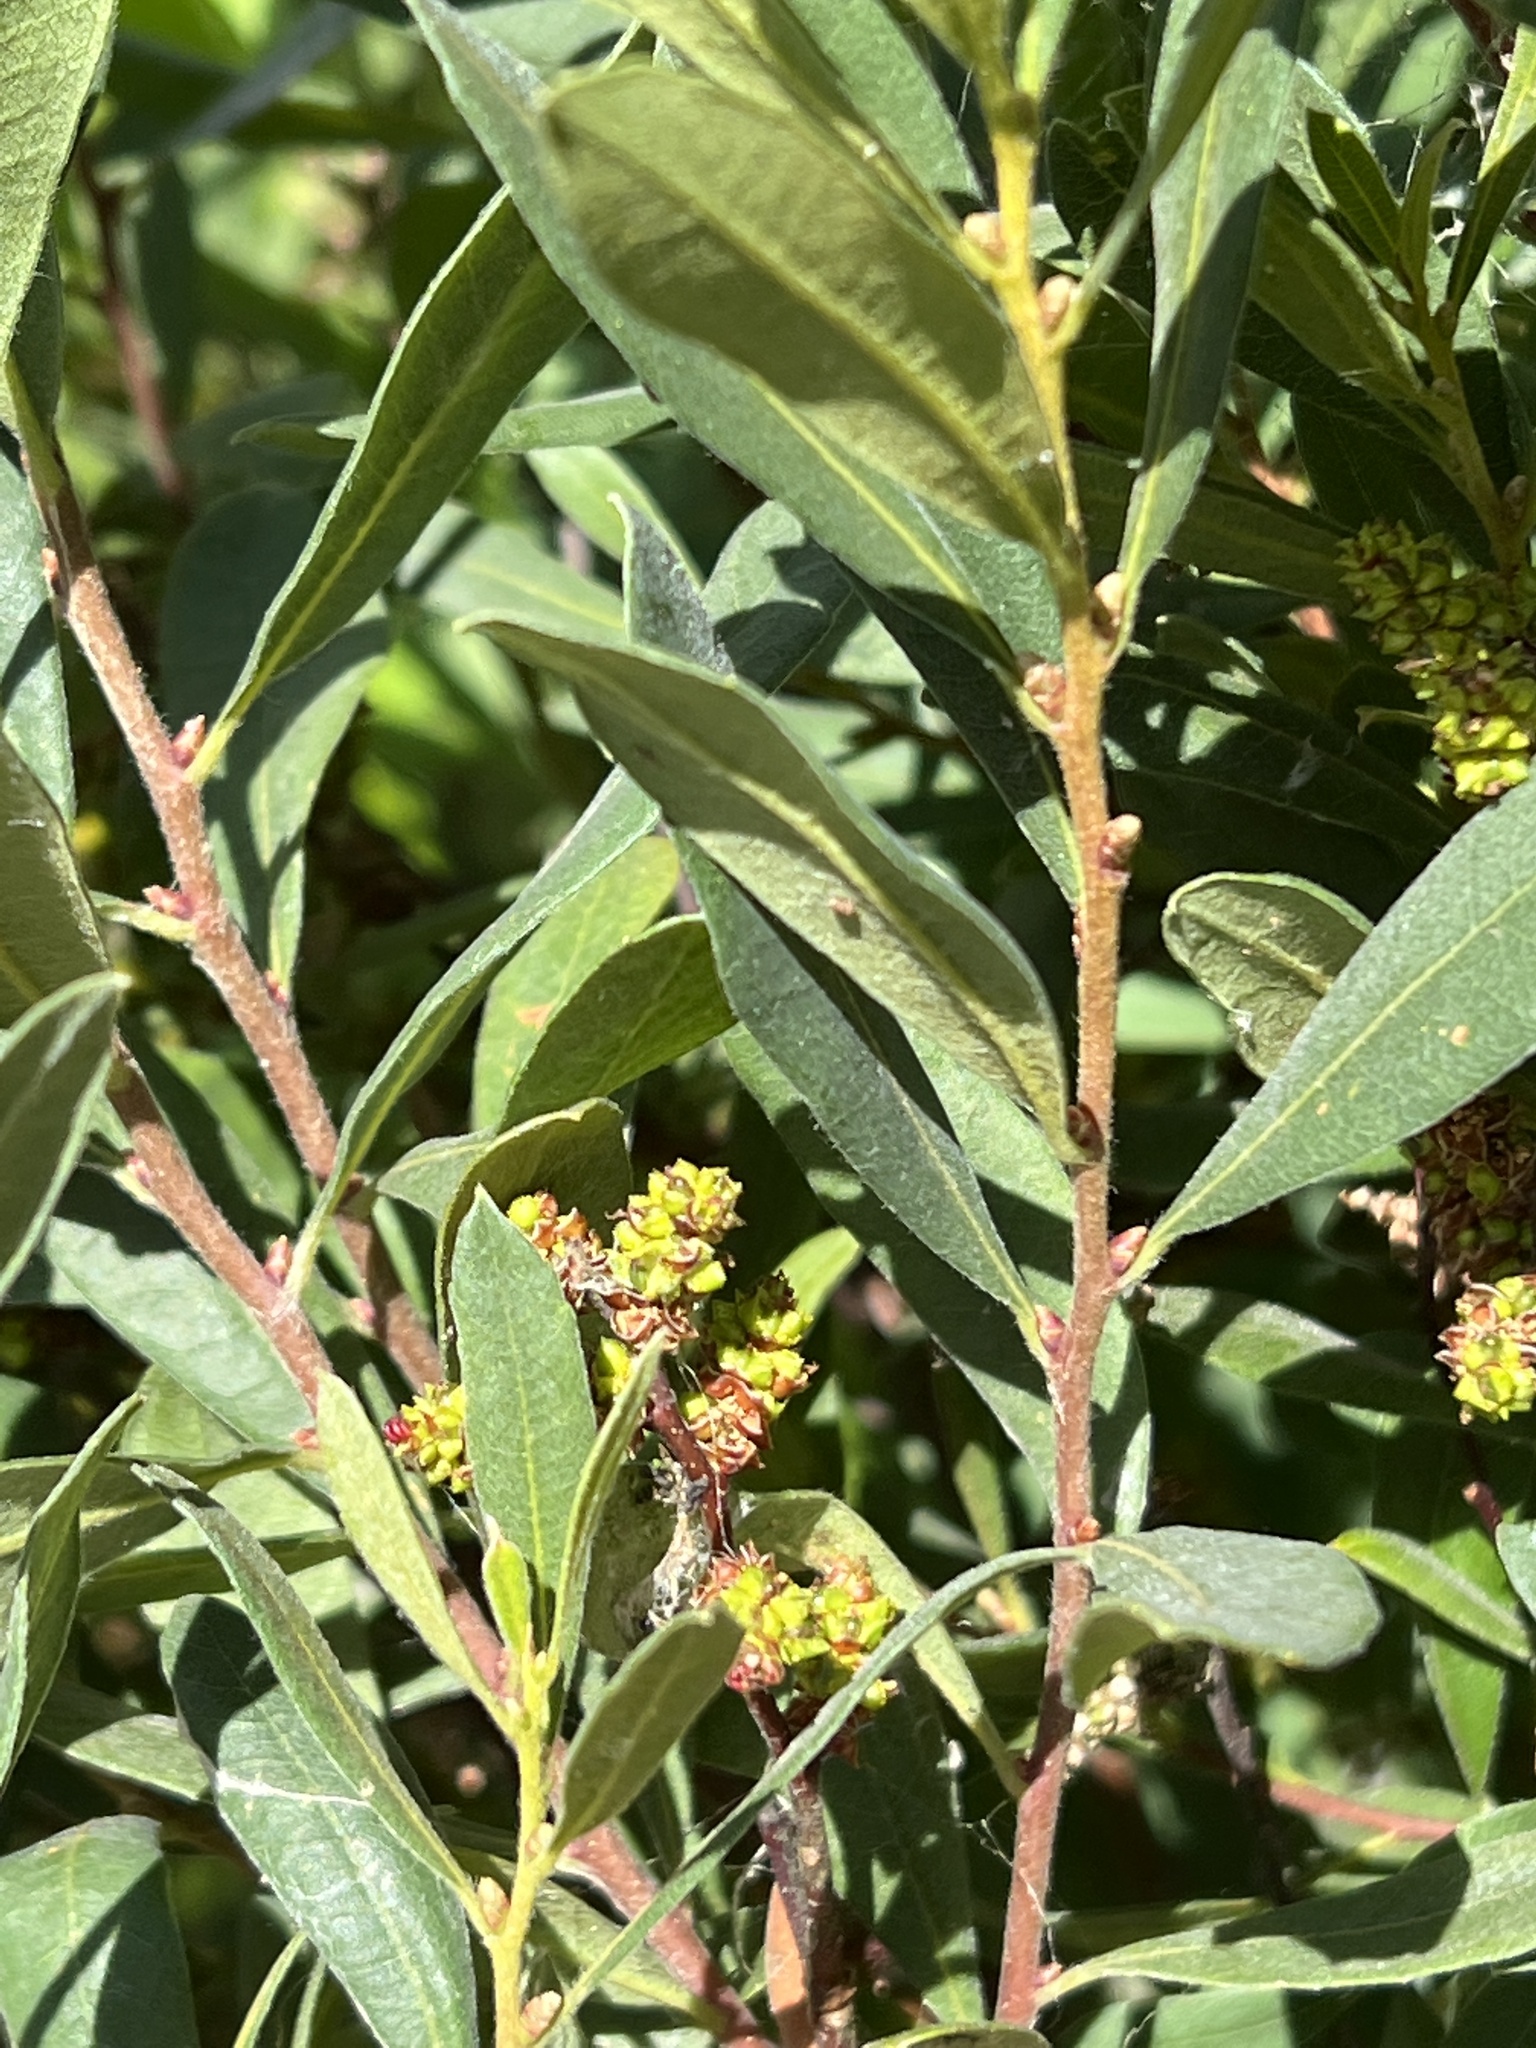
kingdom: Plantae
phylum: Tracheophyta
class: Magnoliopsida
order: Fagales
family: Myricaceae
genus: Myrica
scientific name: Myrica gale
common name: Sweet gale
